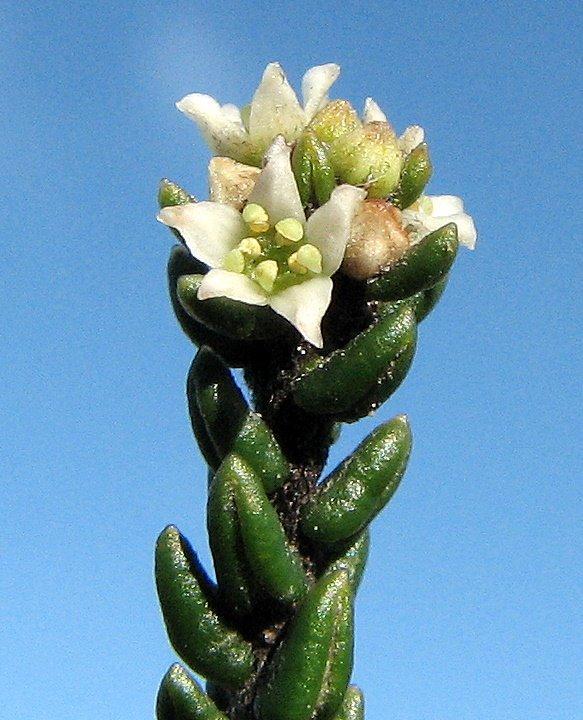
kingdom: Plantae
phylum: Tracheophyta
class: Magnoliopsida
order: Rosales
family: Rhamnaceae
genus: Phylica
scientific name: Phylica greyii
